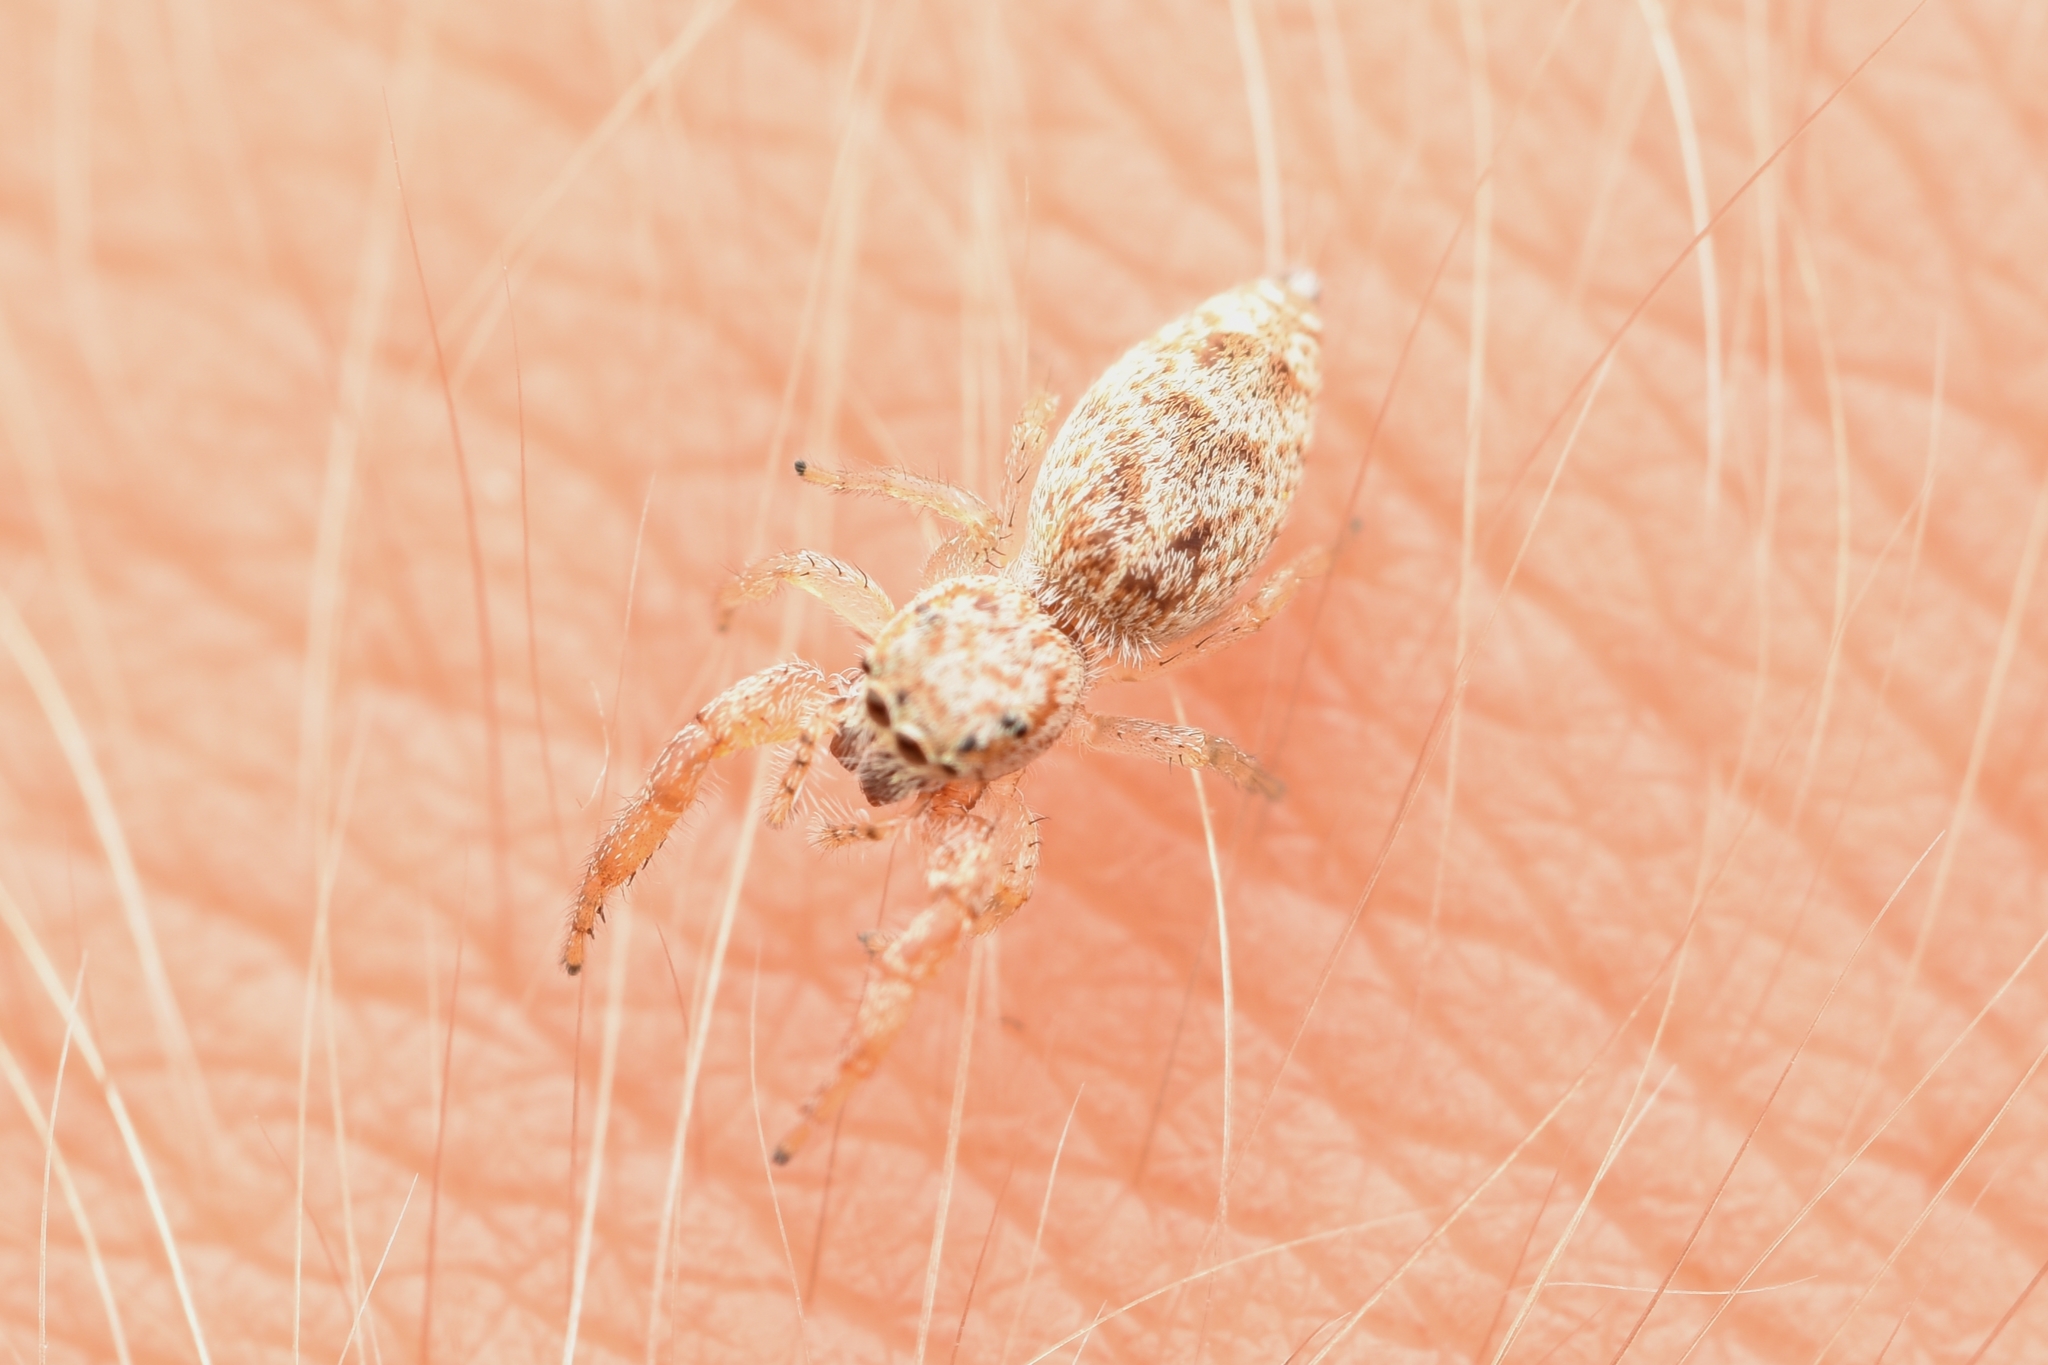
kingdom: Animalia
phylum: Arthropoda
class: Arachnida
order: Araneae
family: Salticidae
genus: Hentzia
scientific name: Hentzia palmarum
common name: Common hentz jumping spider
